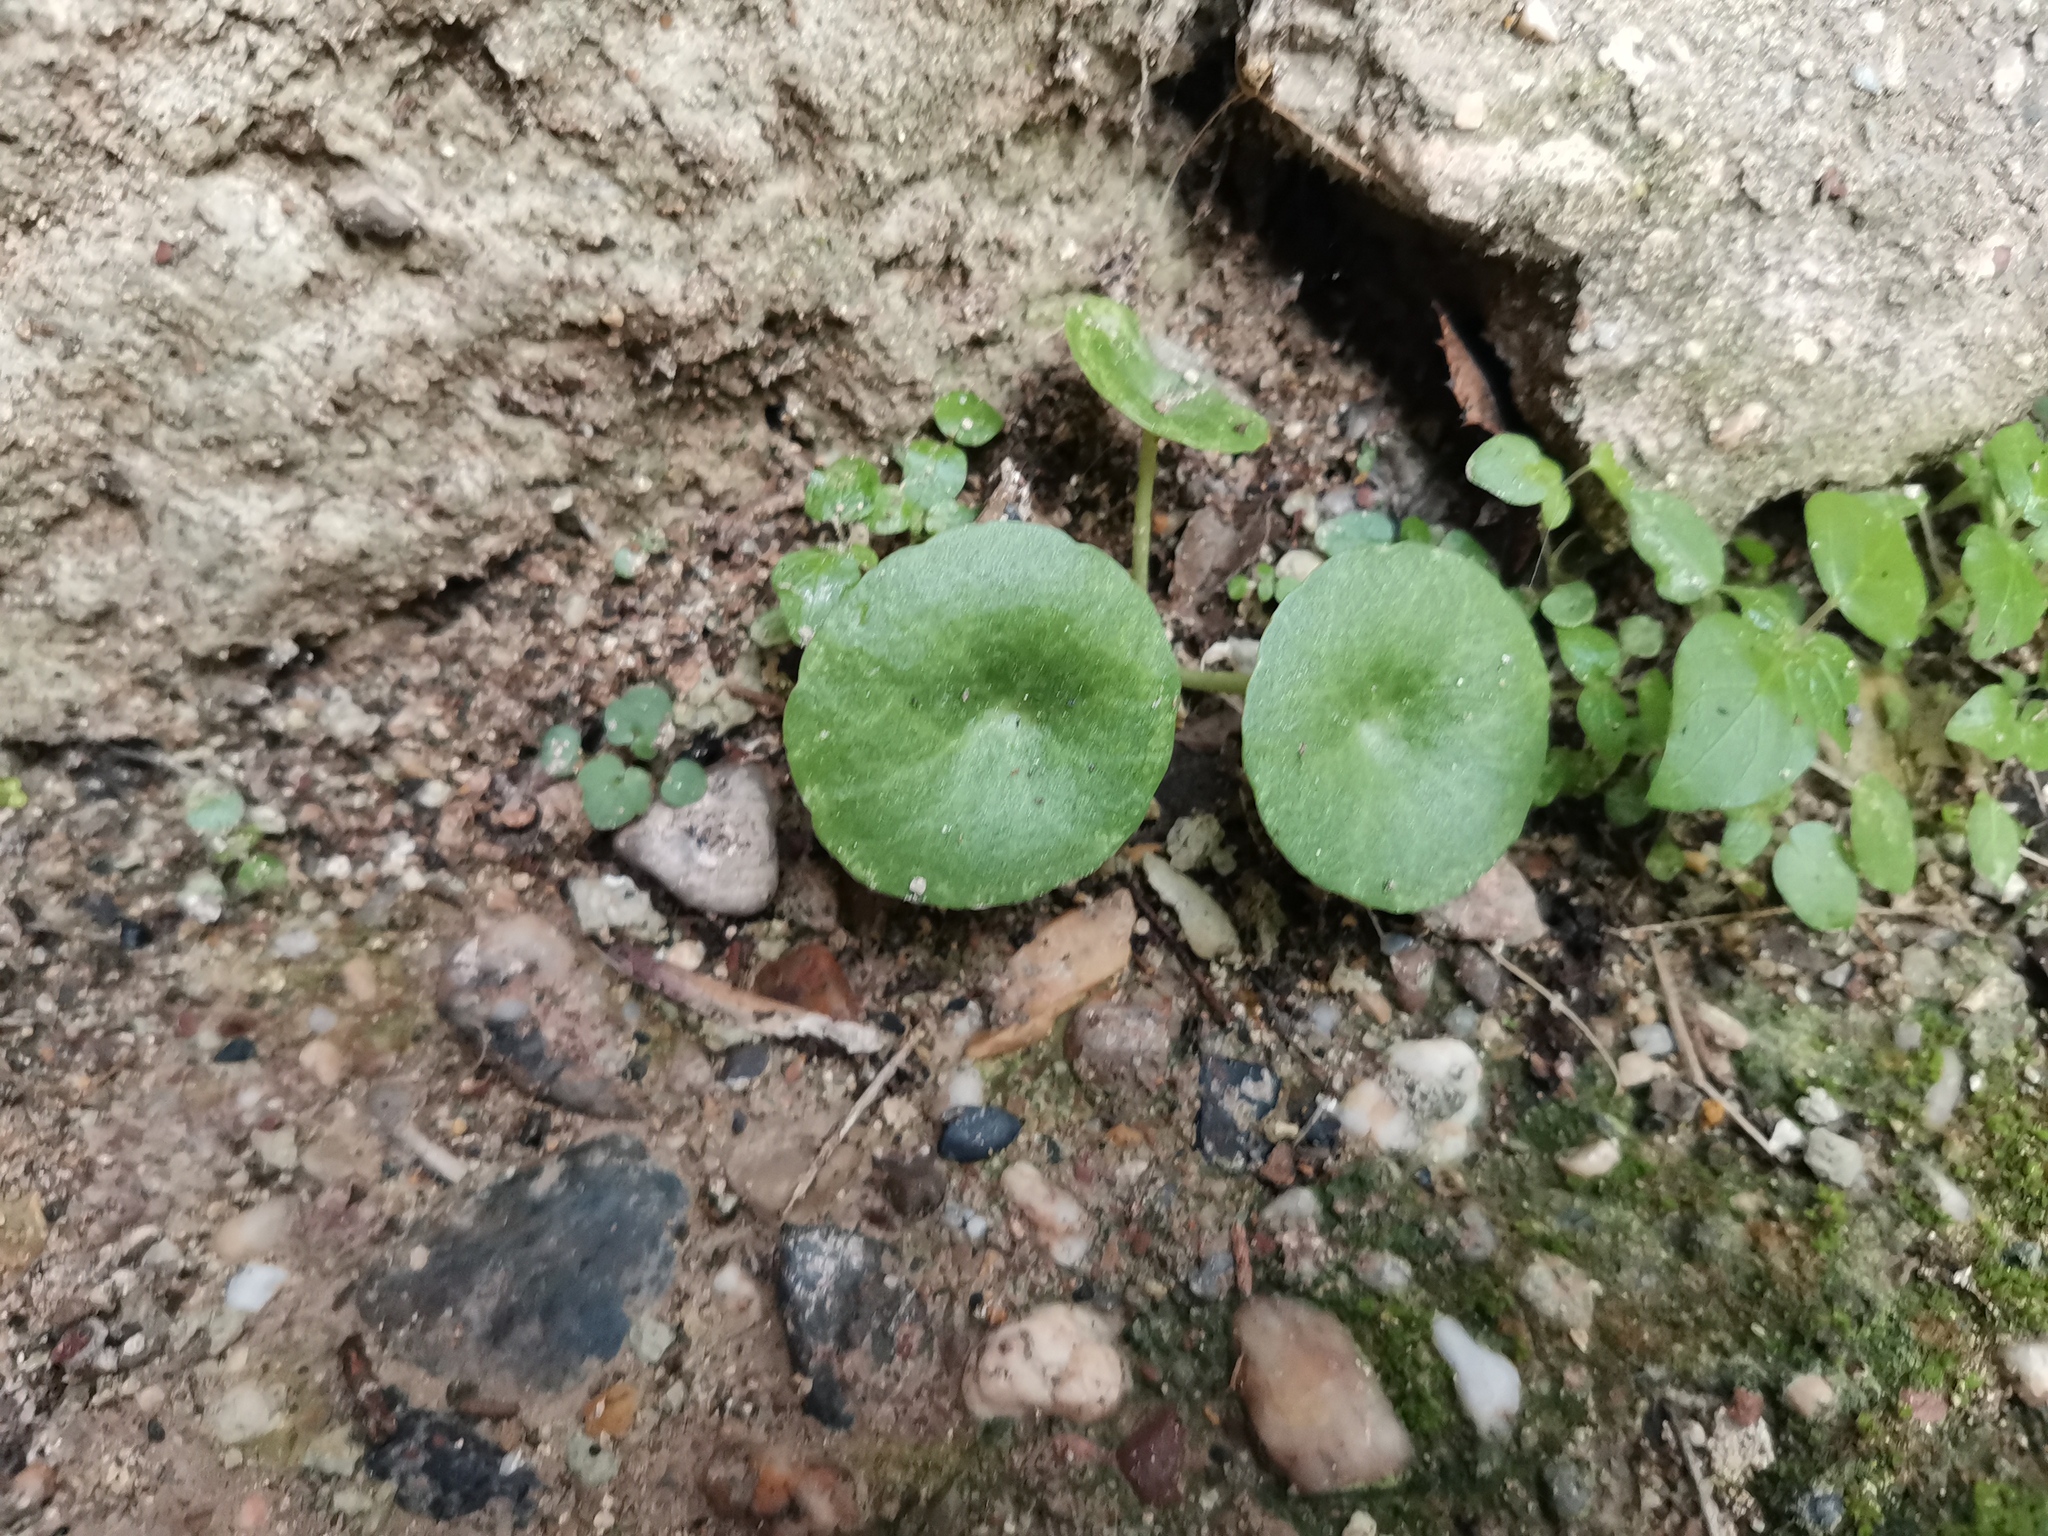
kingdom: Plantae
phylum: Tracheophyta
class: Magnoliopsida
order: Saxifragales
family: Crassulaceae
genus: Umbilicus
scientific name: Umbilicus rupestris
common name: Navelwort
